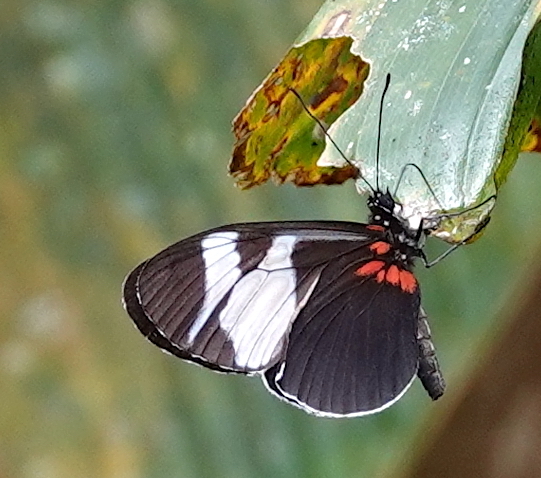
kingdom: Animalia
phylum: Arthropoda
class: Insecta
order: Lepidoptera
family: Nymphalidae
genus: Heliconius
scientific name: Heliconius eleuchia
